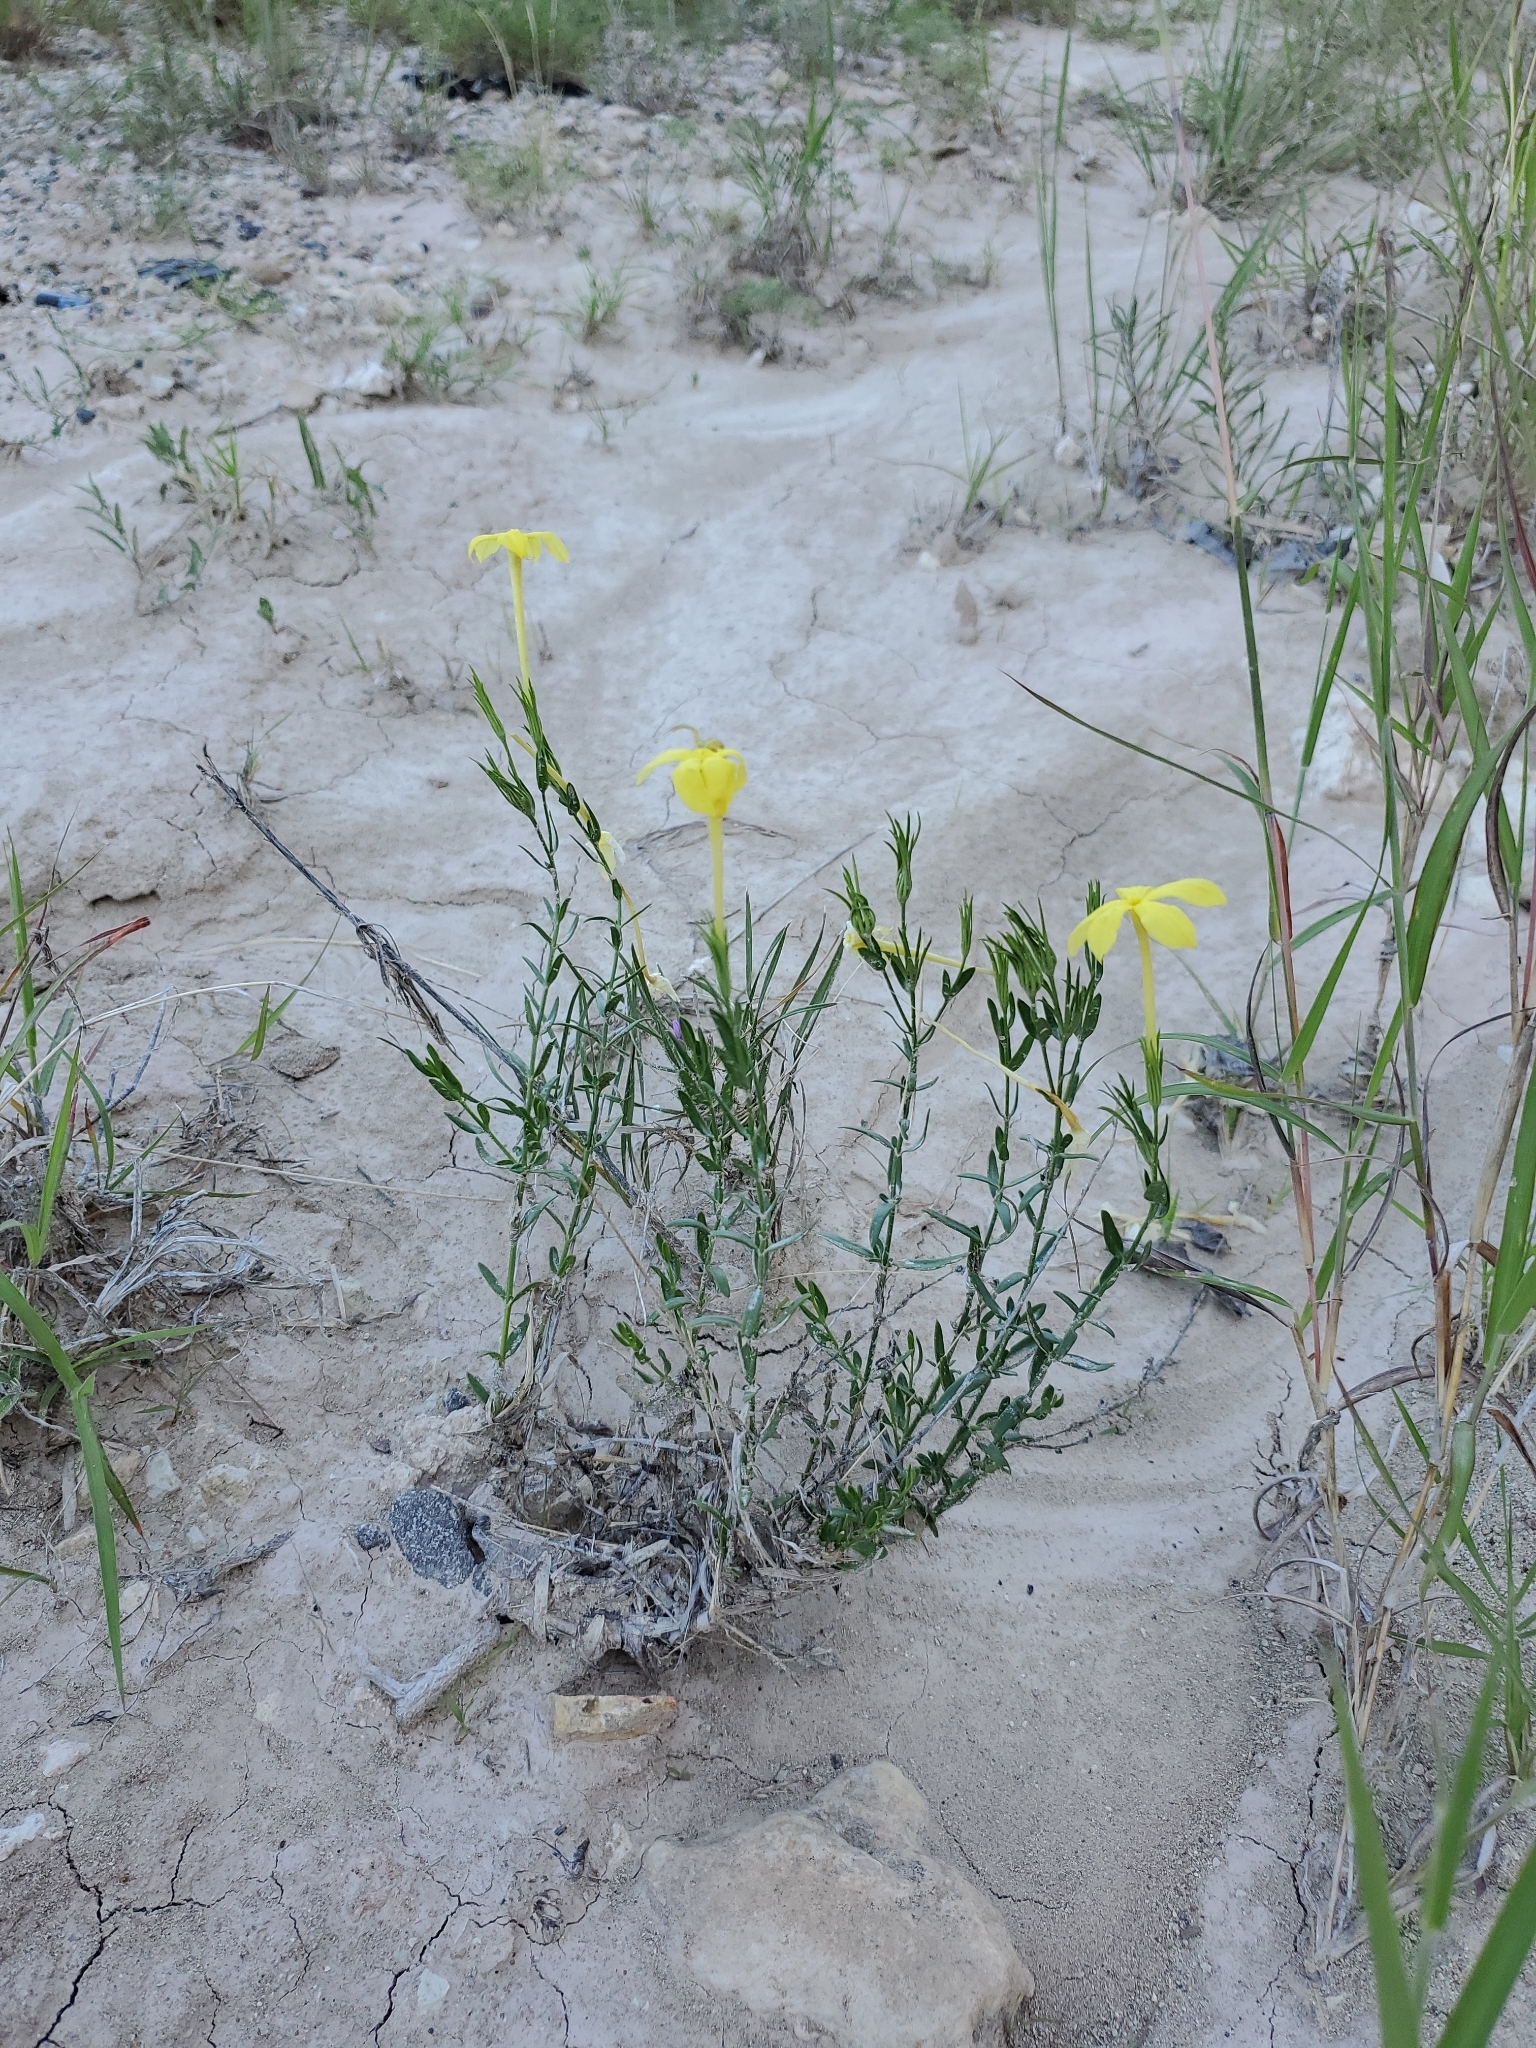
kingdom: Plantae
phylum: Tracheophyta
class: Magnoliopsida
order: Lamiales
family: Oleaceae
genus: Menodora
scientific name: Menodora longiflora
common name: Showy menodora
